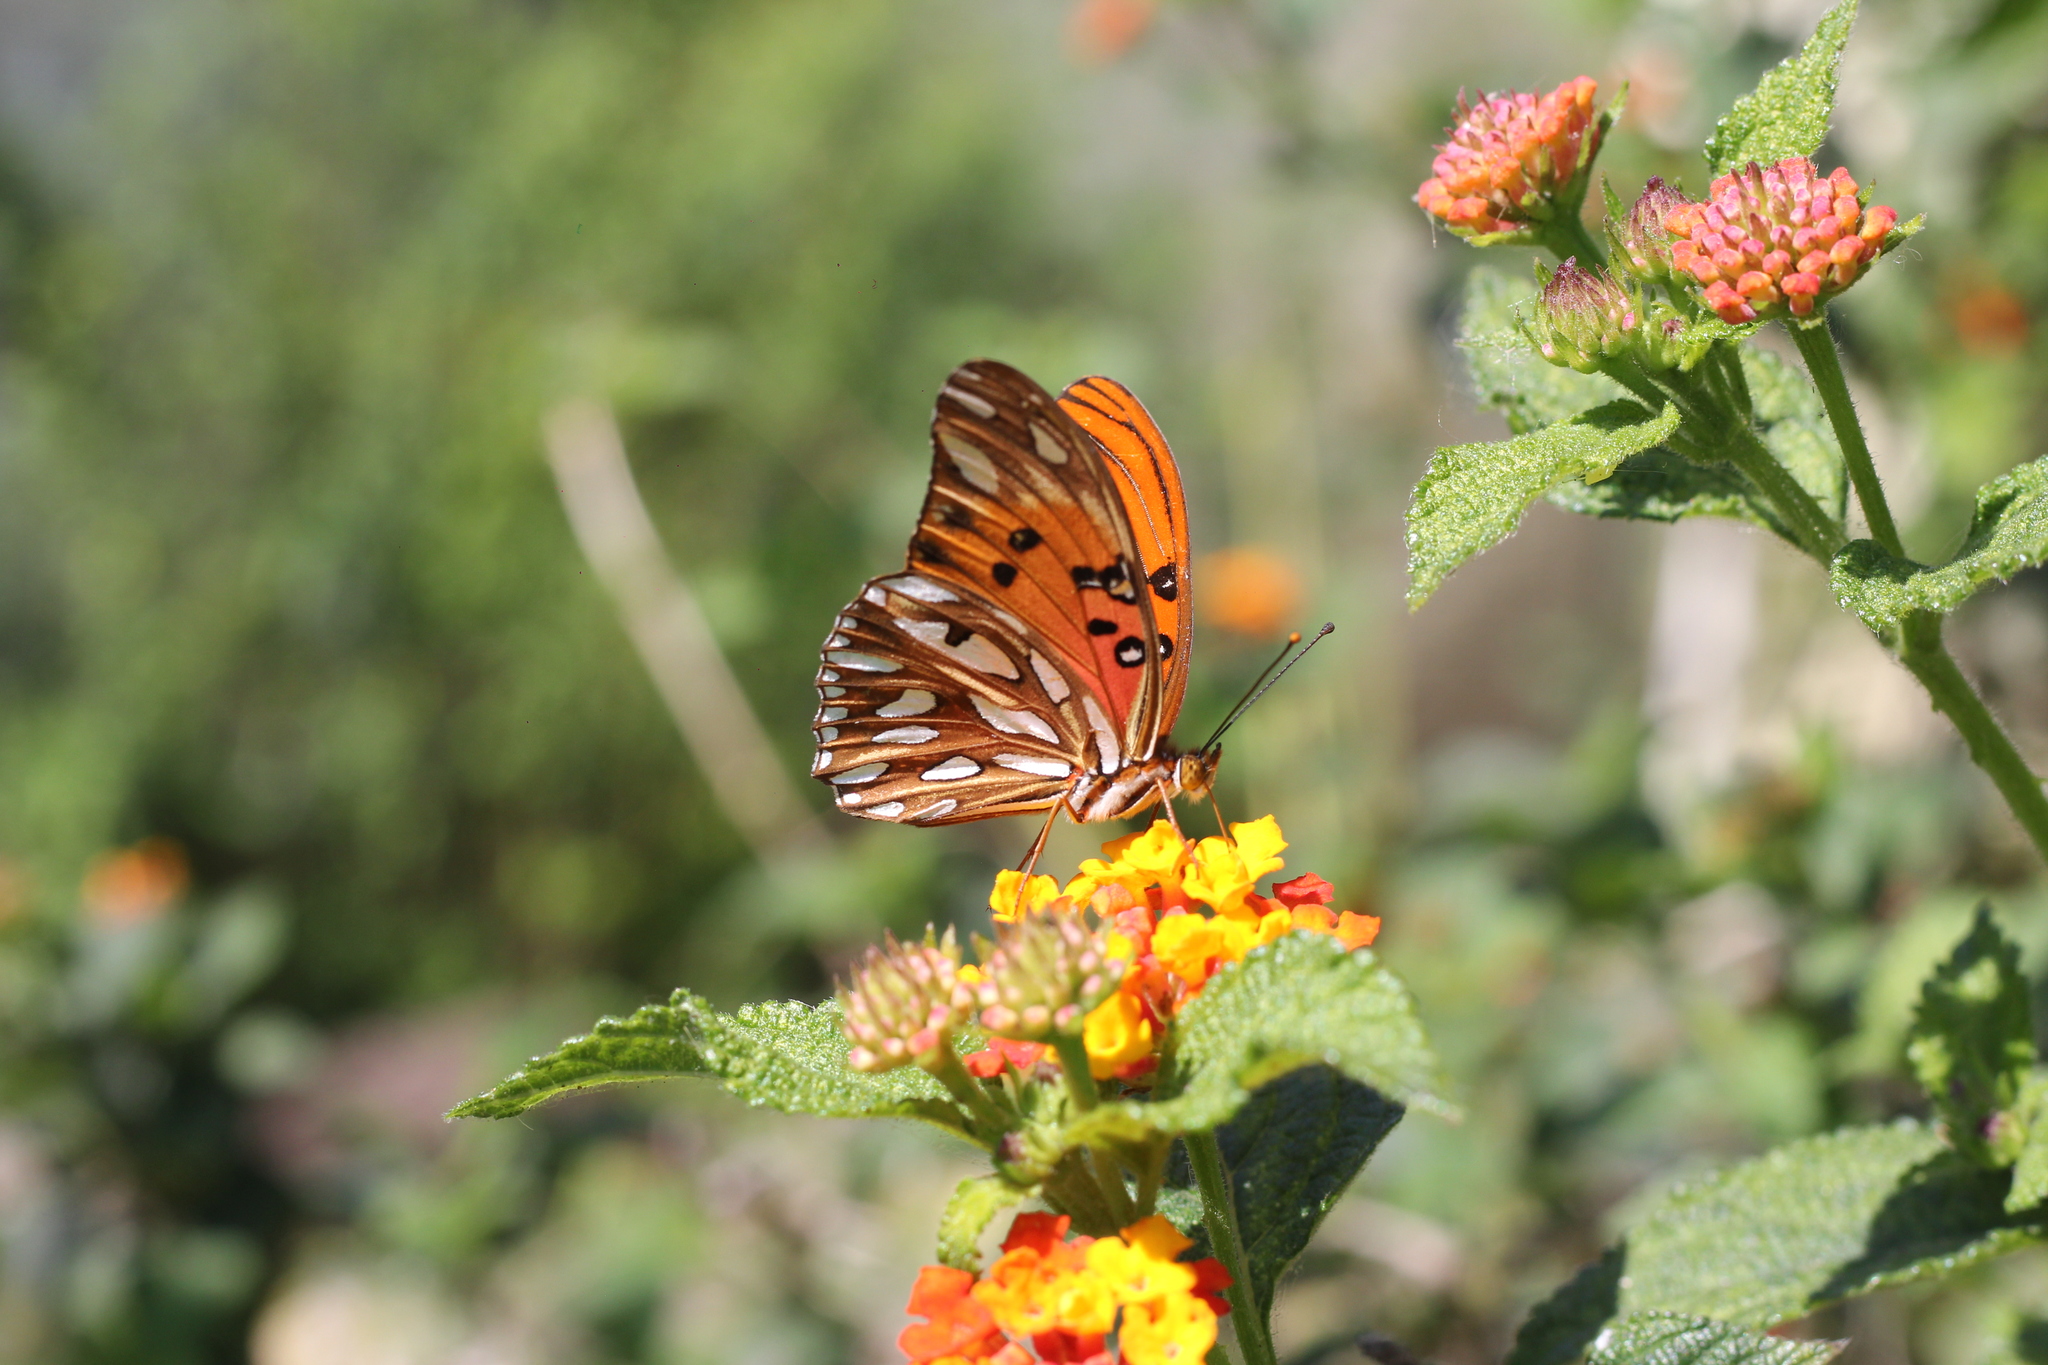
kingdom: Animalia
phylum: Arthropoda
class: Insecta
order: Lepidoptera
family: Nymphalidae
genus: Dione
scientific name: Dione vanillae
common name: Gulf fritillary
